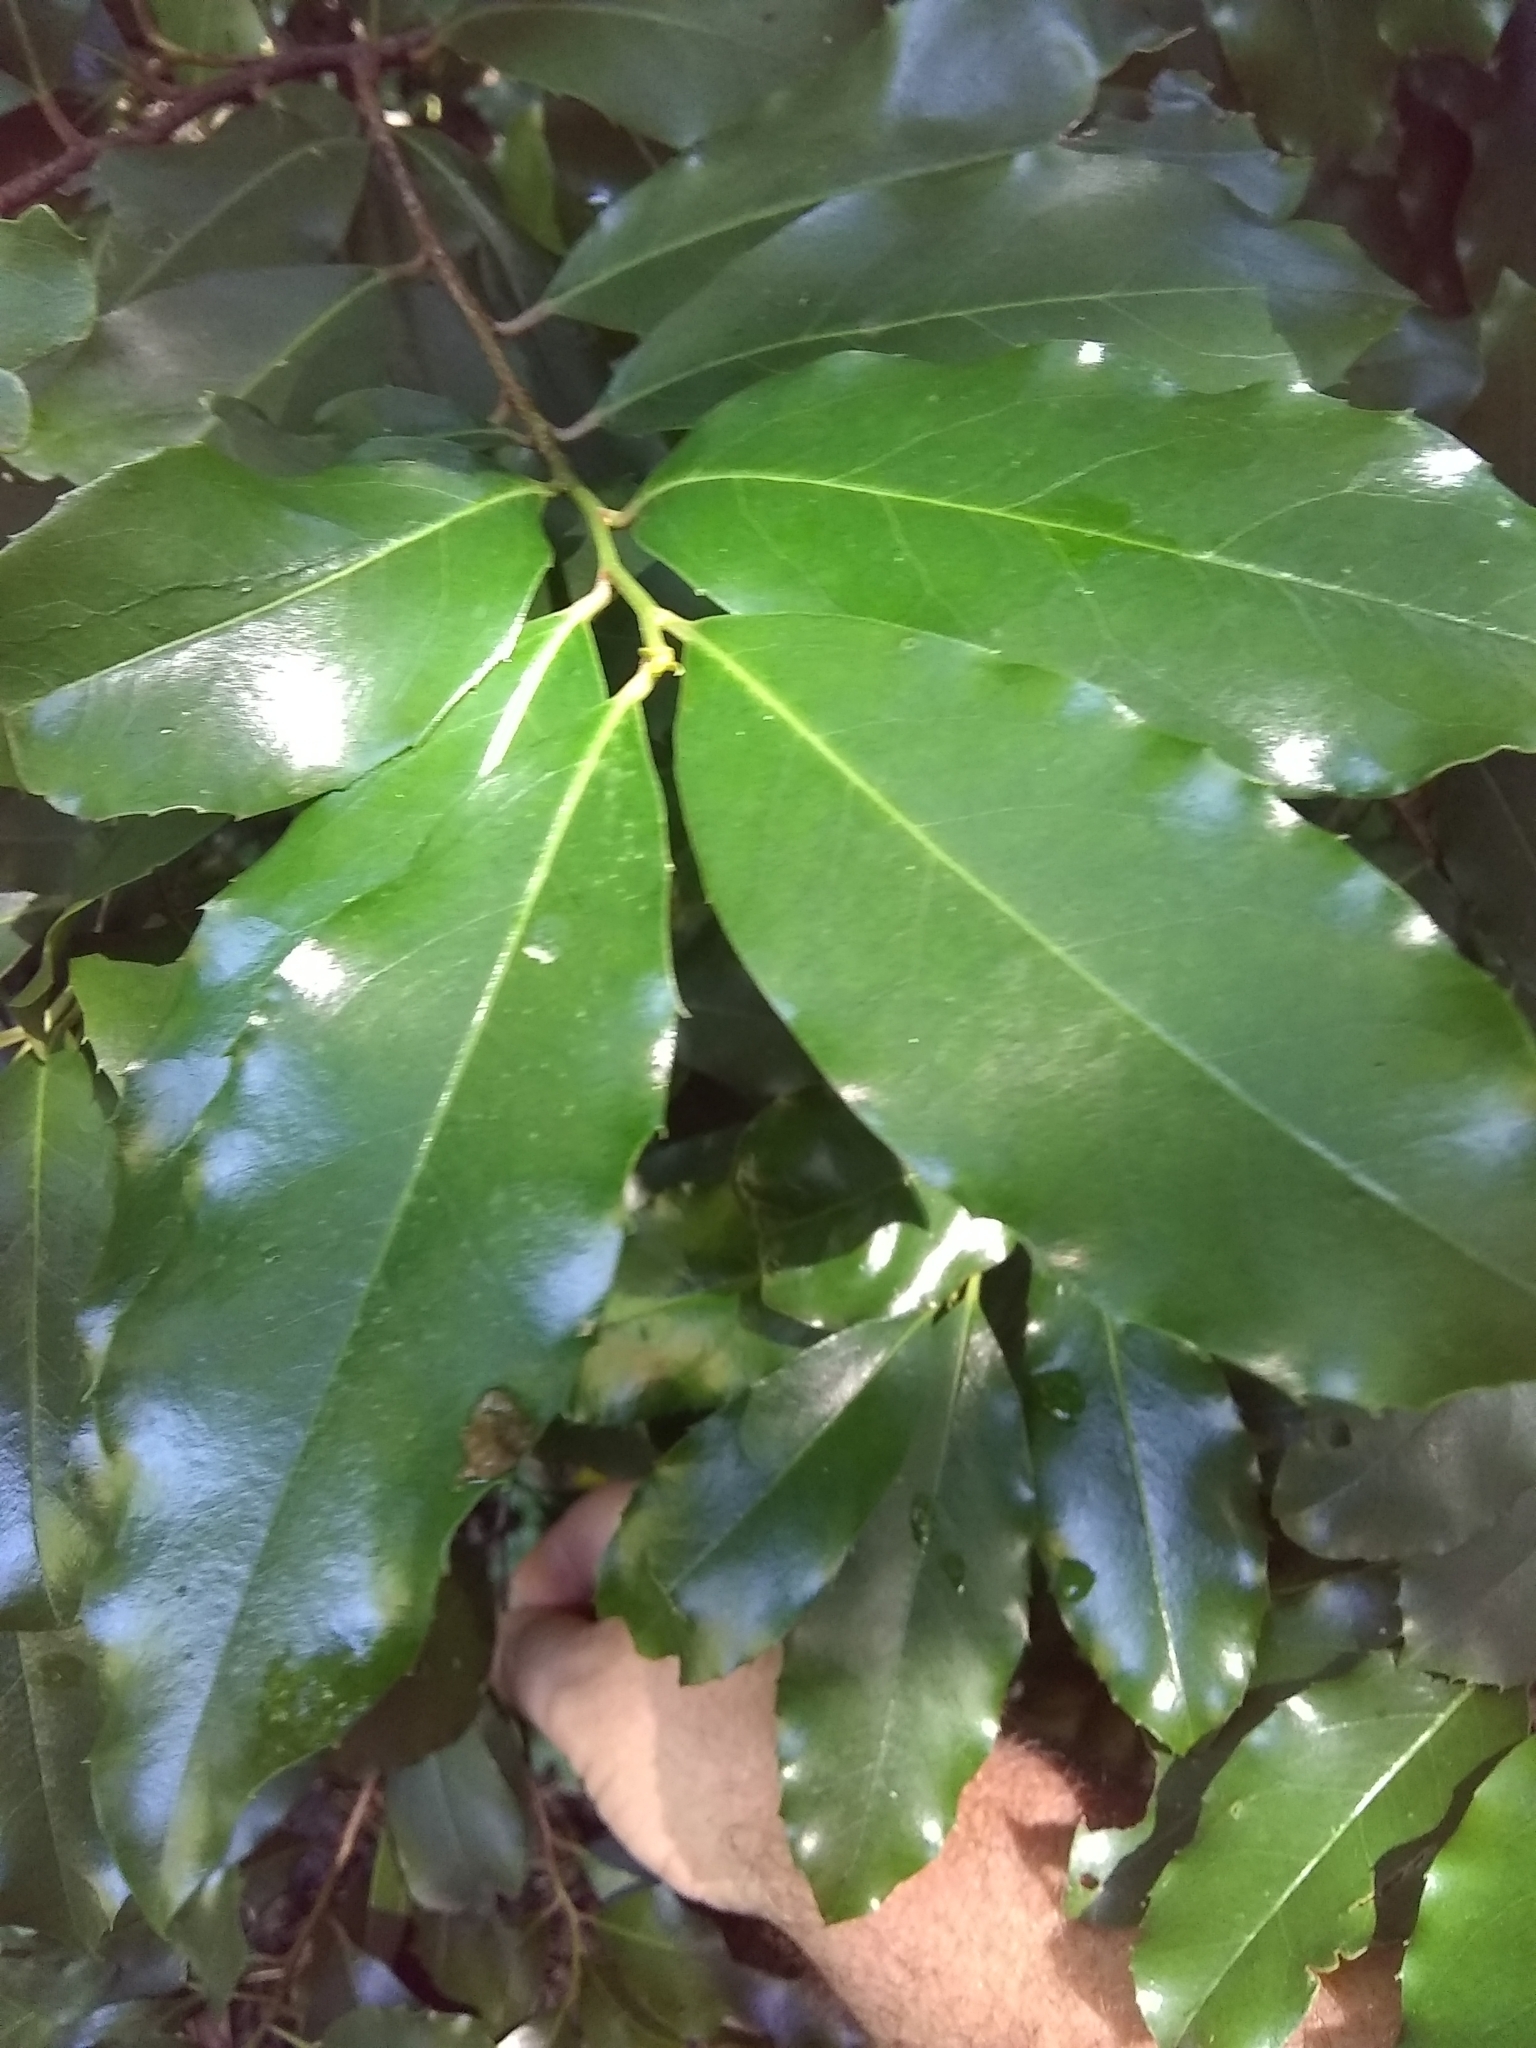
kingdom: Plantae
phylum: Tracheophyta
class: Magnoliopsida
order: Rosales
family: Rosaceae
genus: Prunus
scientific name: Prunus caroliniana
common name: Carolina laurel cherry
